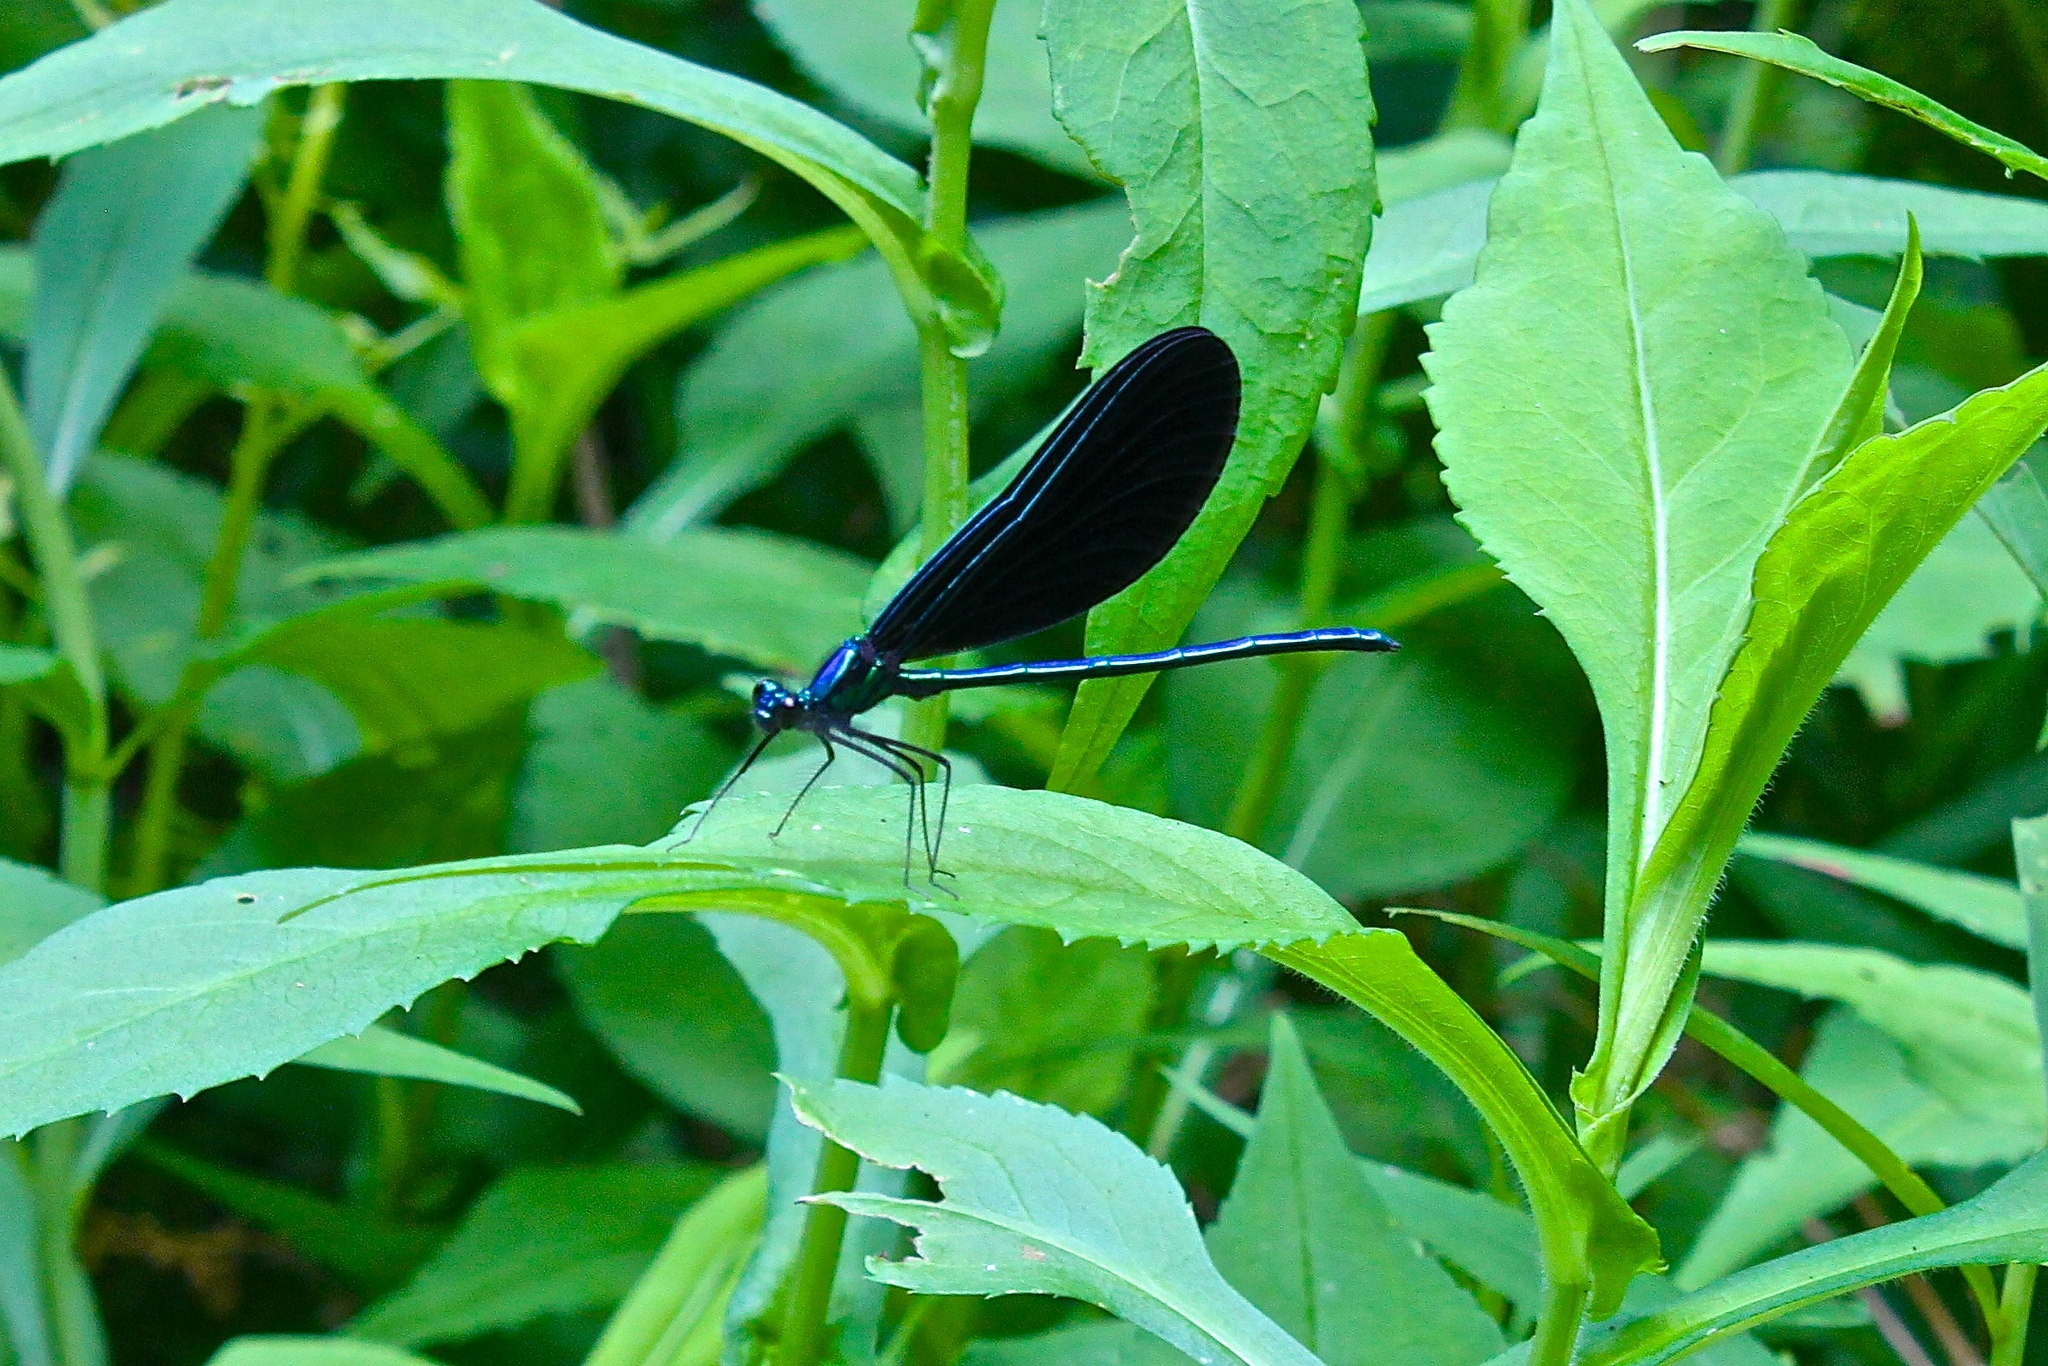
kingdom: Animalia
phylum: Arthropoda
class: Insecta
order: Odonata
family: Calopterygidae
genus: Calopteryx
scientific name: Calopteryx maculata
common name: Ebony jewelwing
